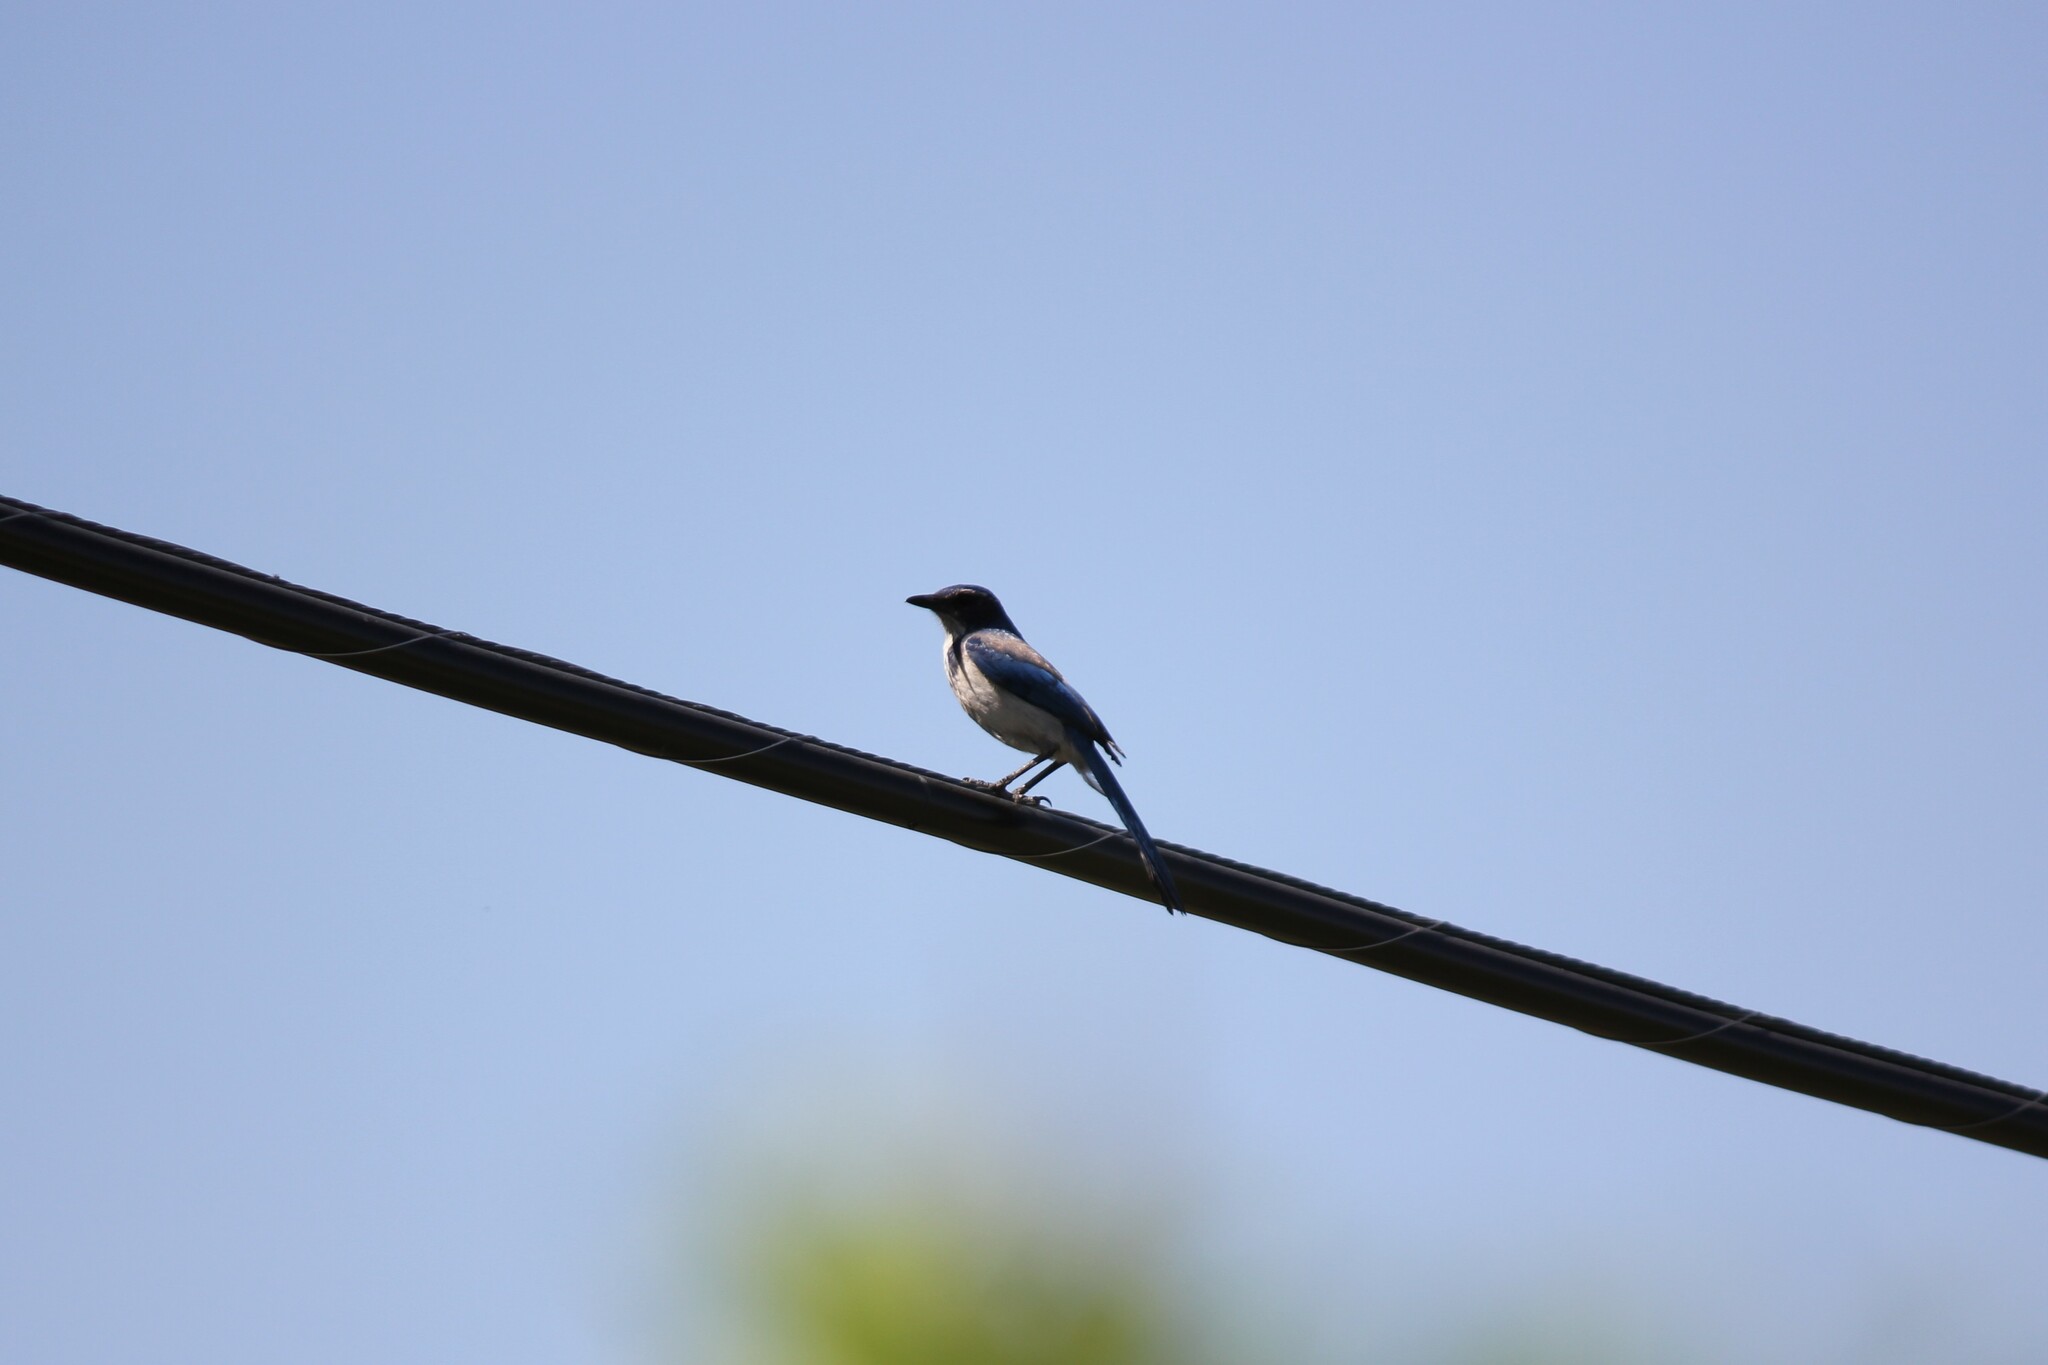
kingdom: Animalia
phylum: Chordata
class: Aves
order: Passeriformes
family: Corvidae
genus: Aphelocoma
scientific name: Aphelocoma californica
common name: California scrub-jay
